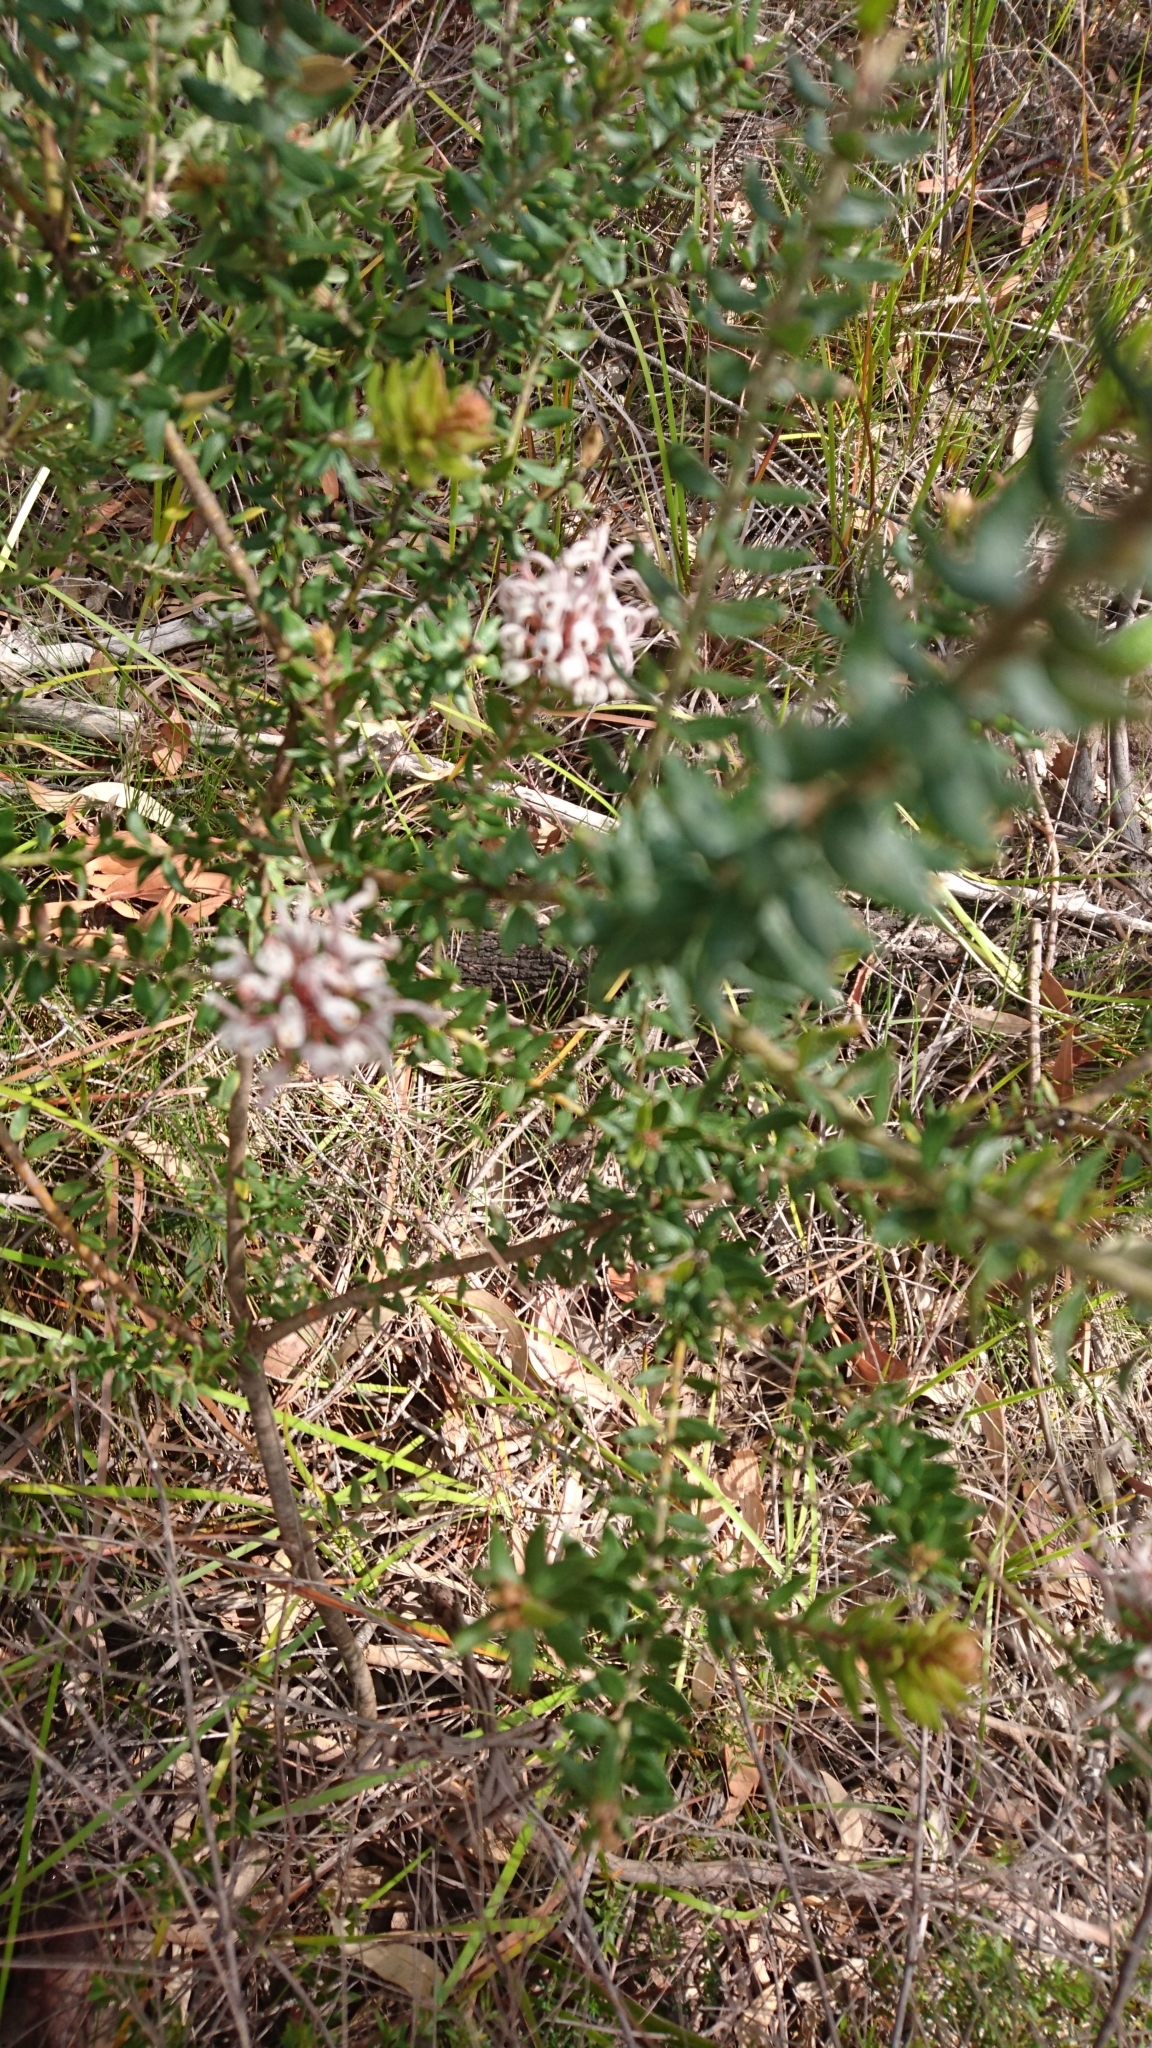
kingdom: Plantae
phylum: Tracheophyta
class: Magnoliopsida
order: Proteales
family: Proteaceae
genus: Grevillea
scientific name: Grevillea buxifolia
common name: Grey spiderflower
